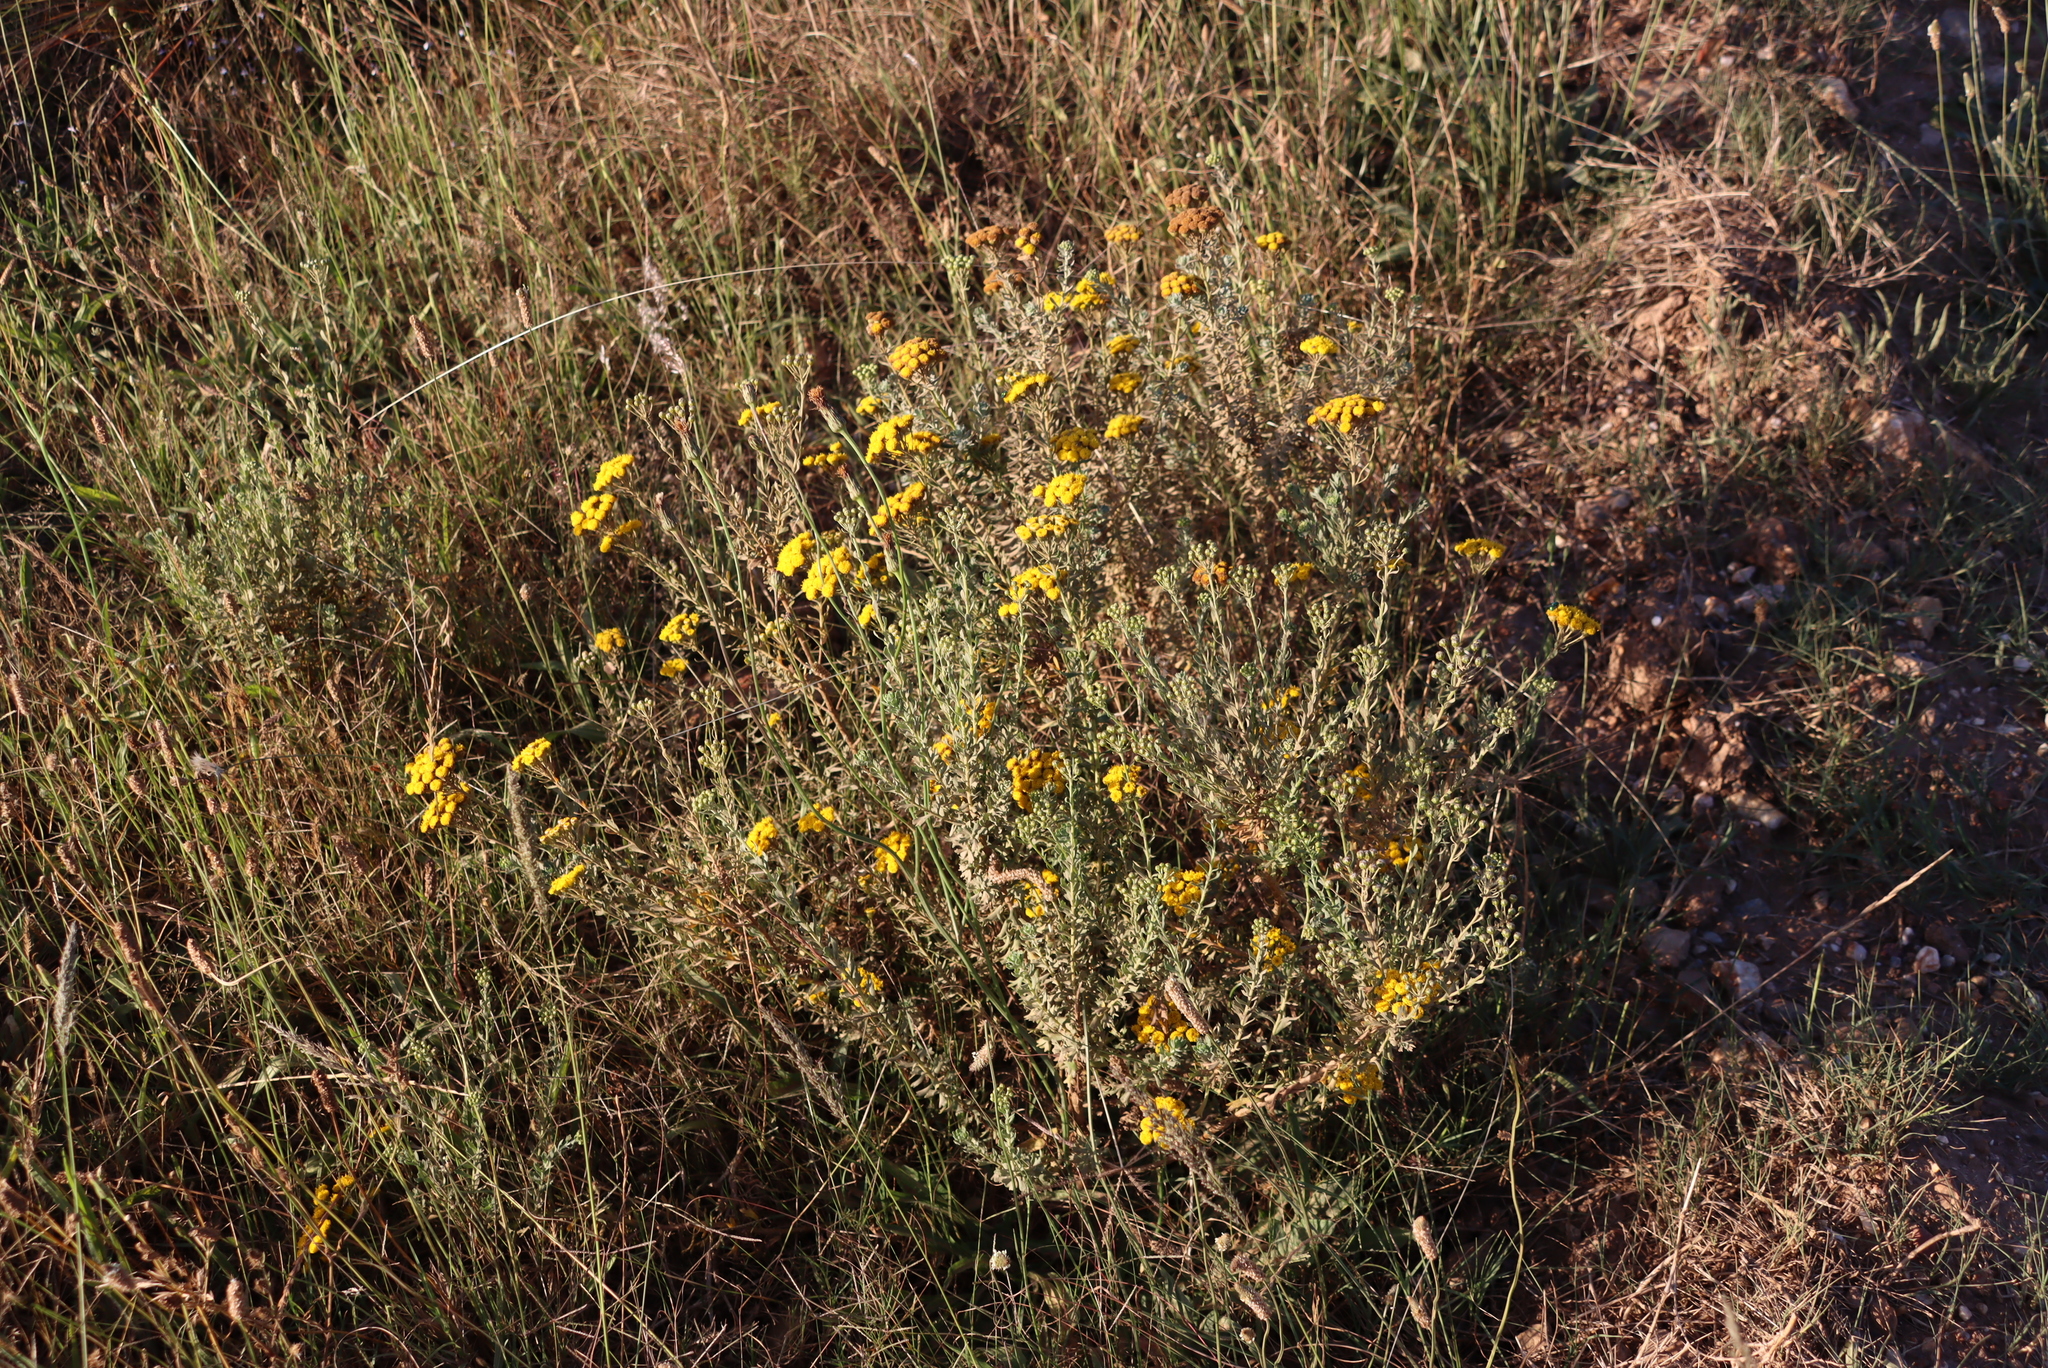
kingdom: Plantae
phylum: Tracheophyta
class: Magnoliopsida
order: Asterales
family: Asteraceae
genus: Athanasia
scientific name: Athanasia trifurcata
